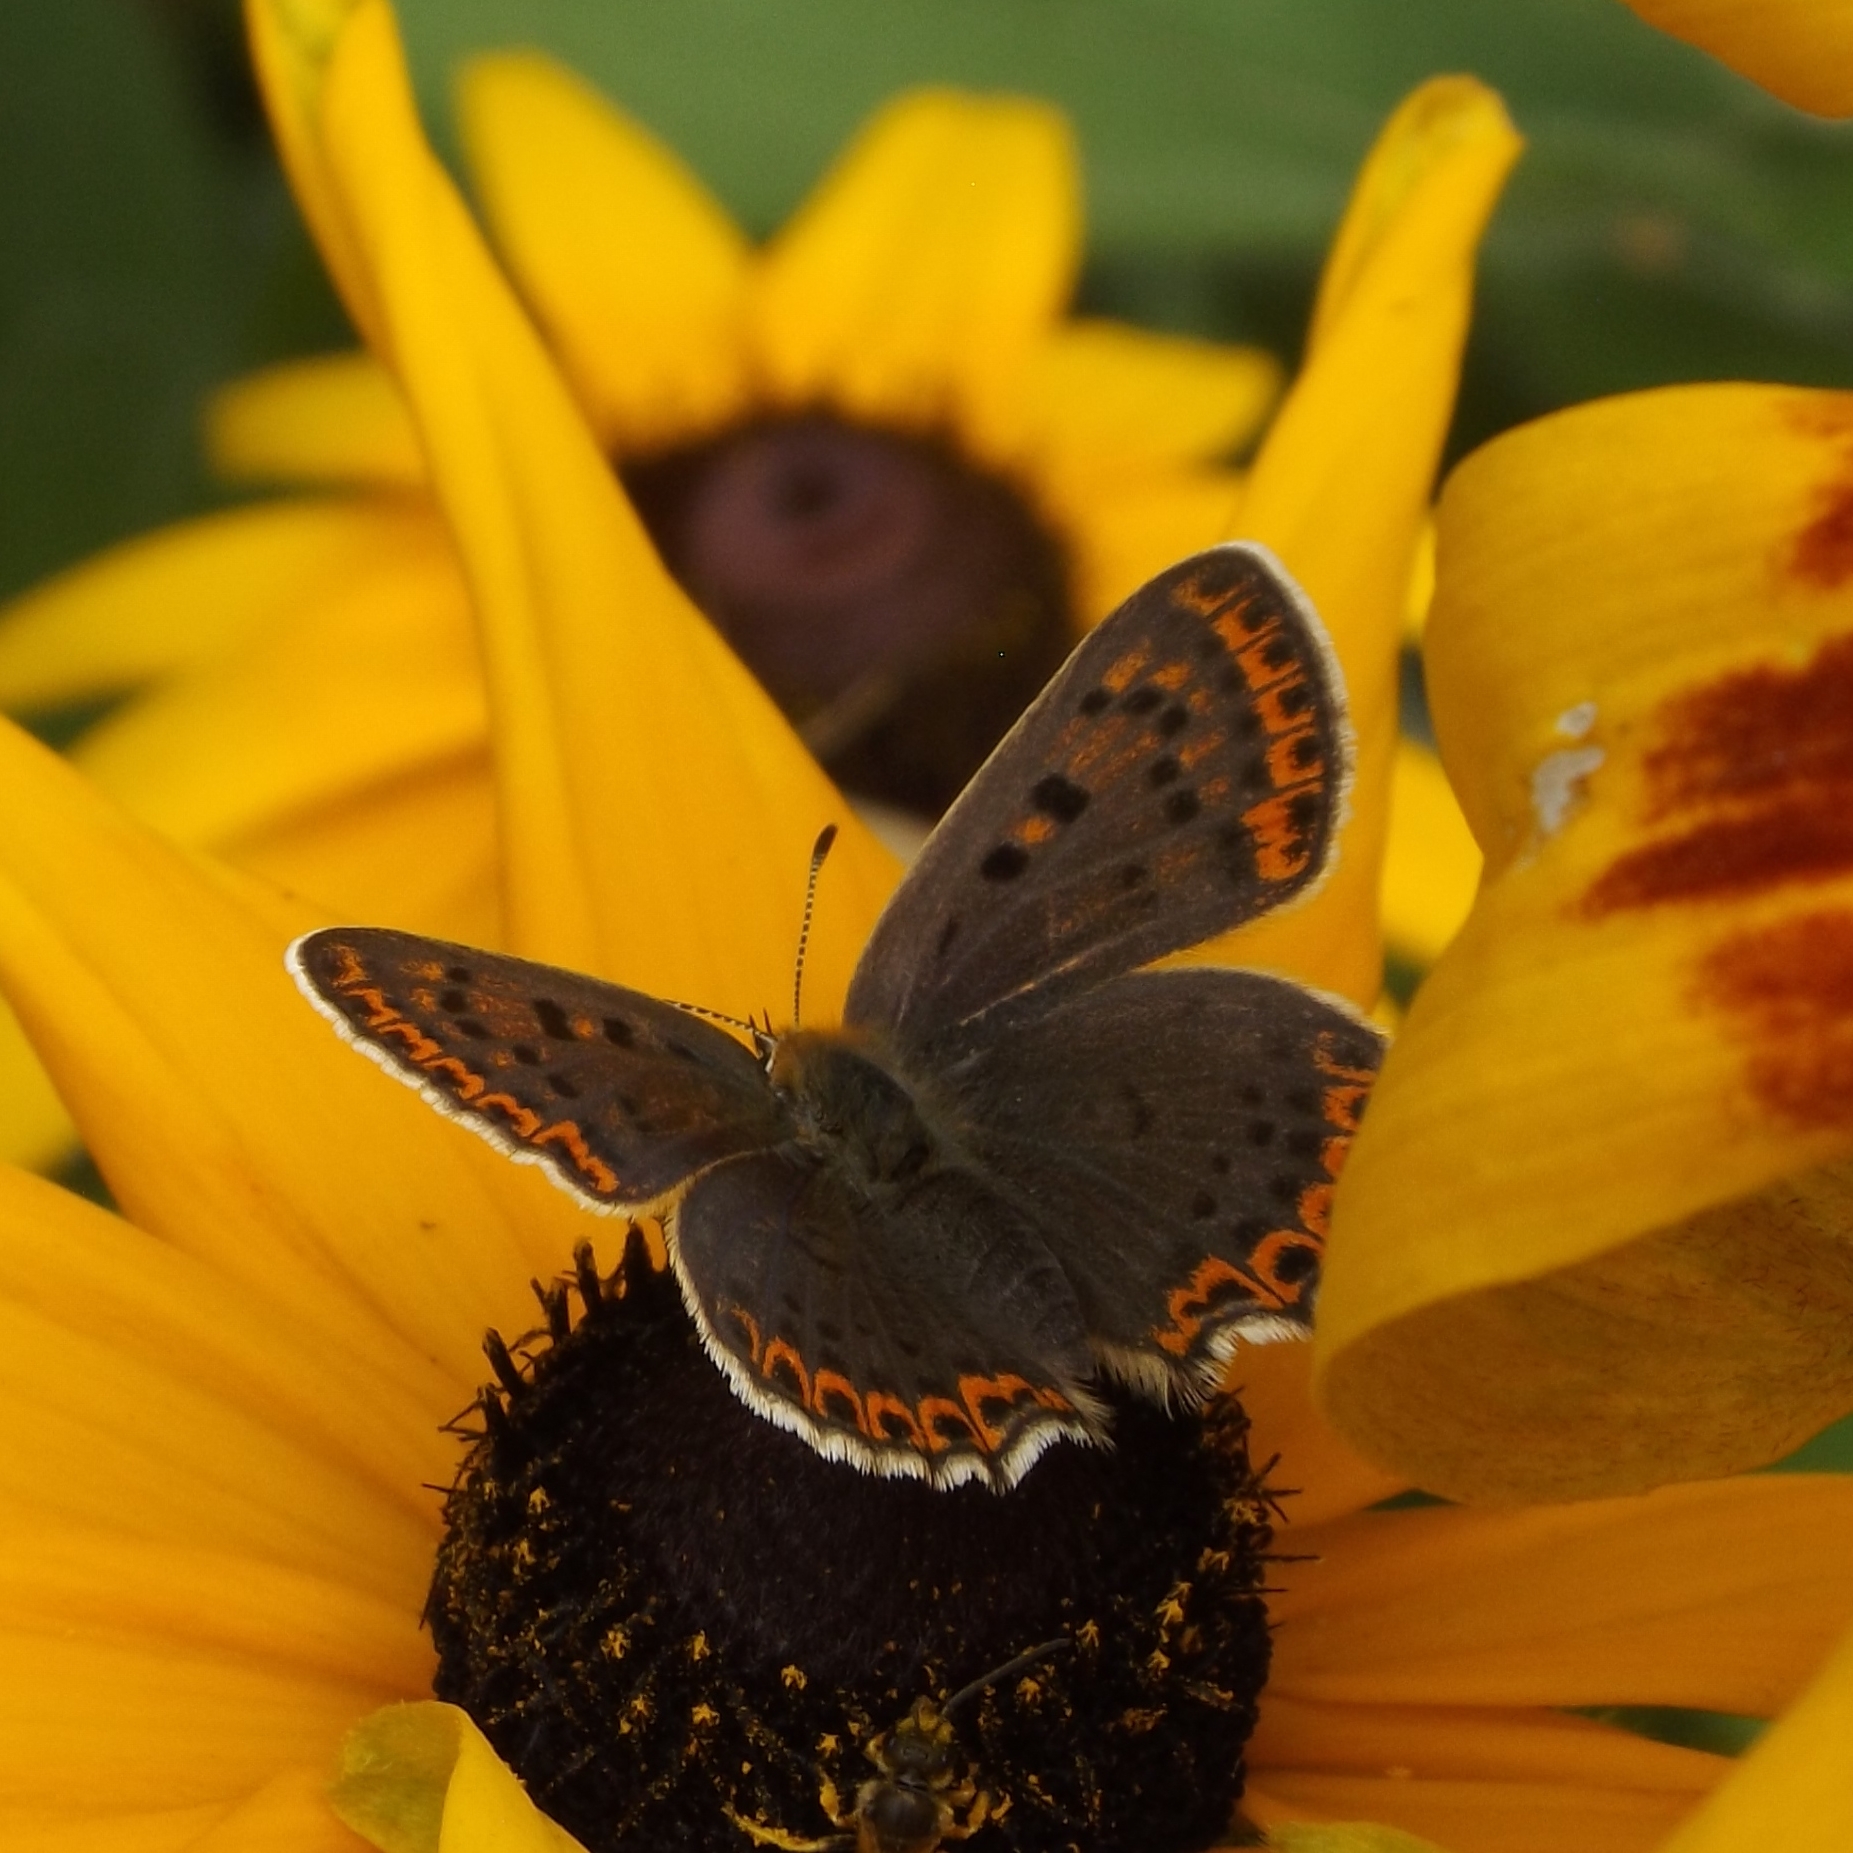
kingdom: Animalia
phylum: Arthropoda
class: Insecta
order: Lepidoptera
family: Lycaenidae
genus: Loweia
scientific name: Loweia tityrus
